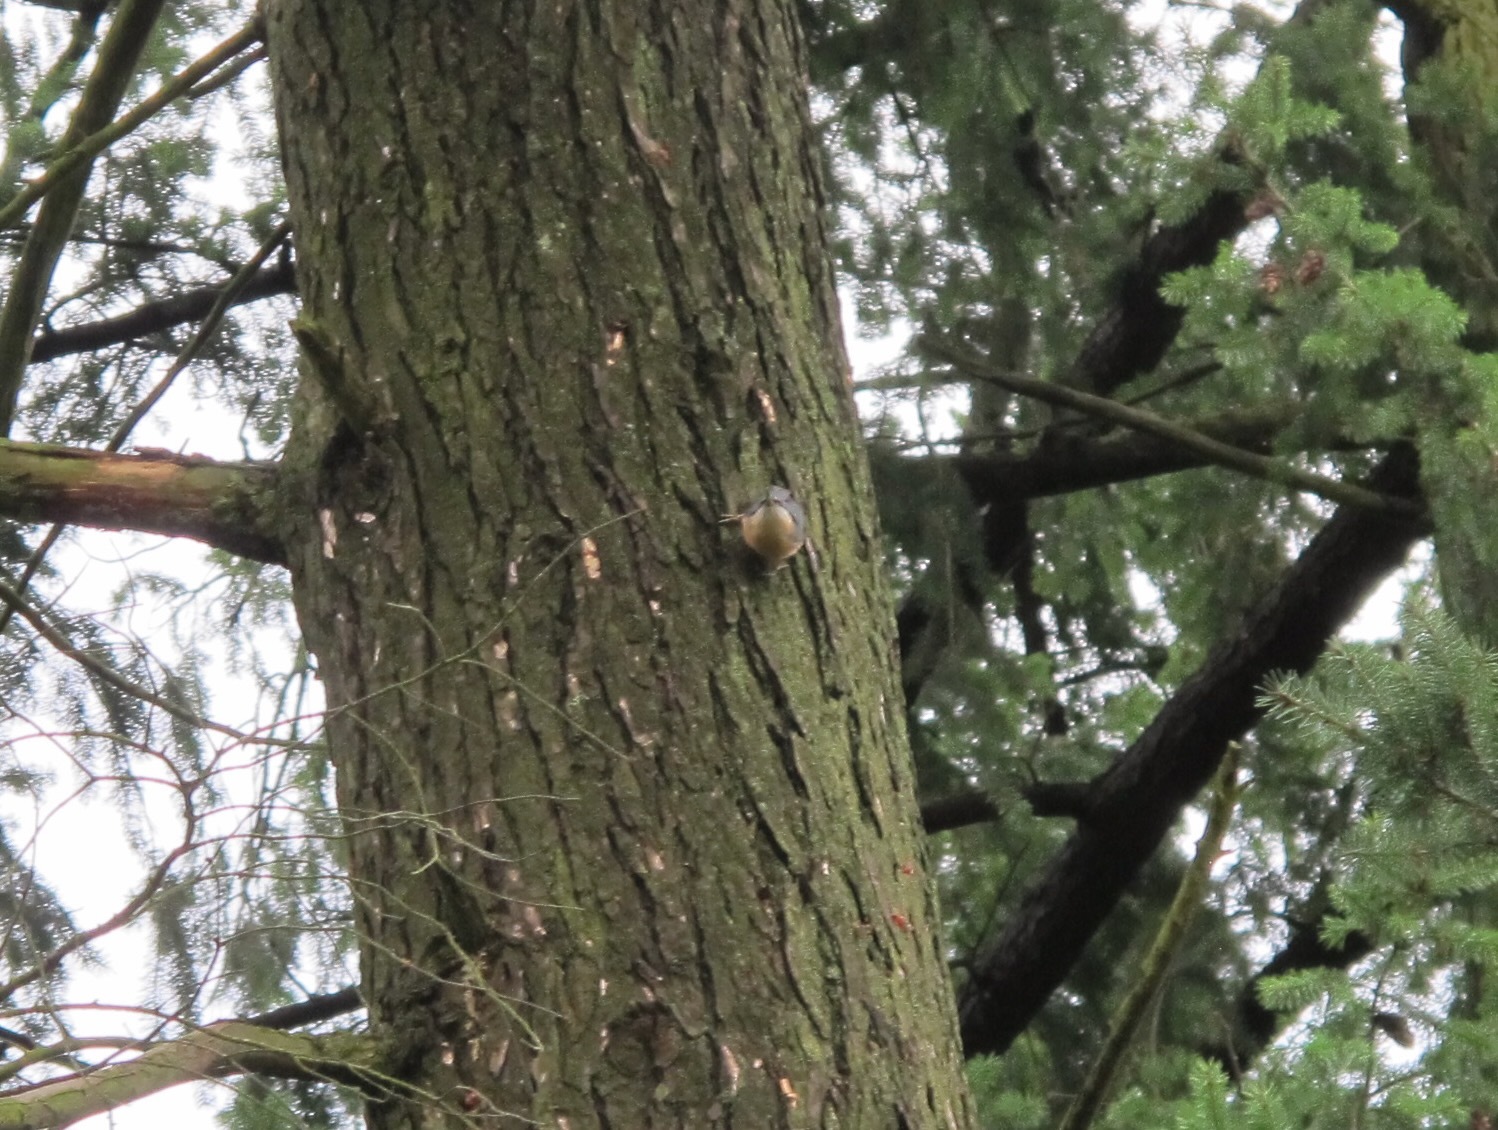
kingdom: Animalia
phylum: Chordata
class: Aves
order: Passeriformes
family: Sittidae
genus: Sitta
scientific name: Sitta europaea
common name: Eurasian nuthatch
